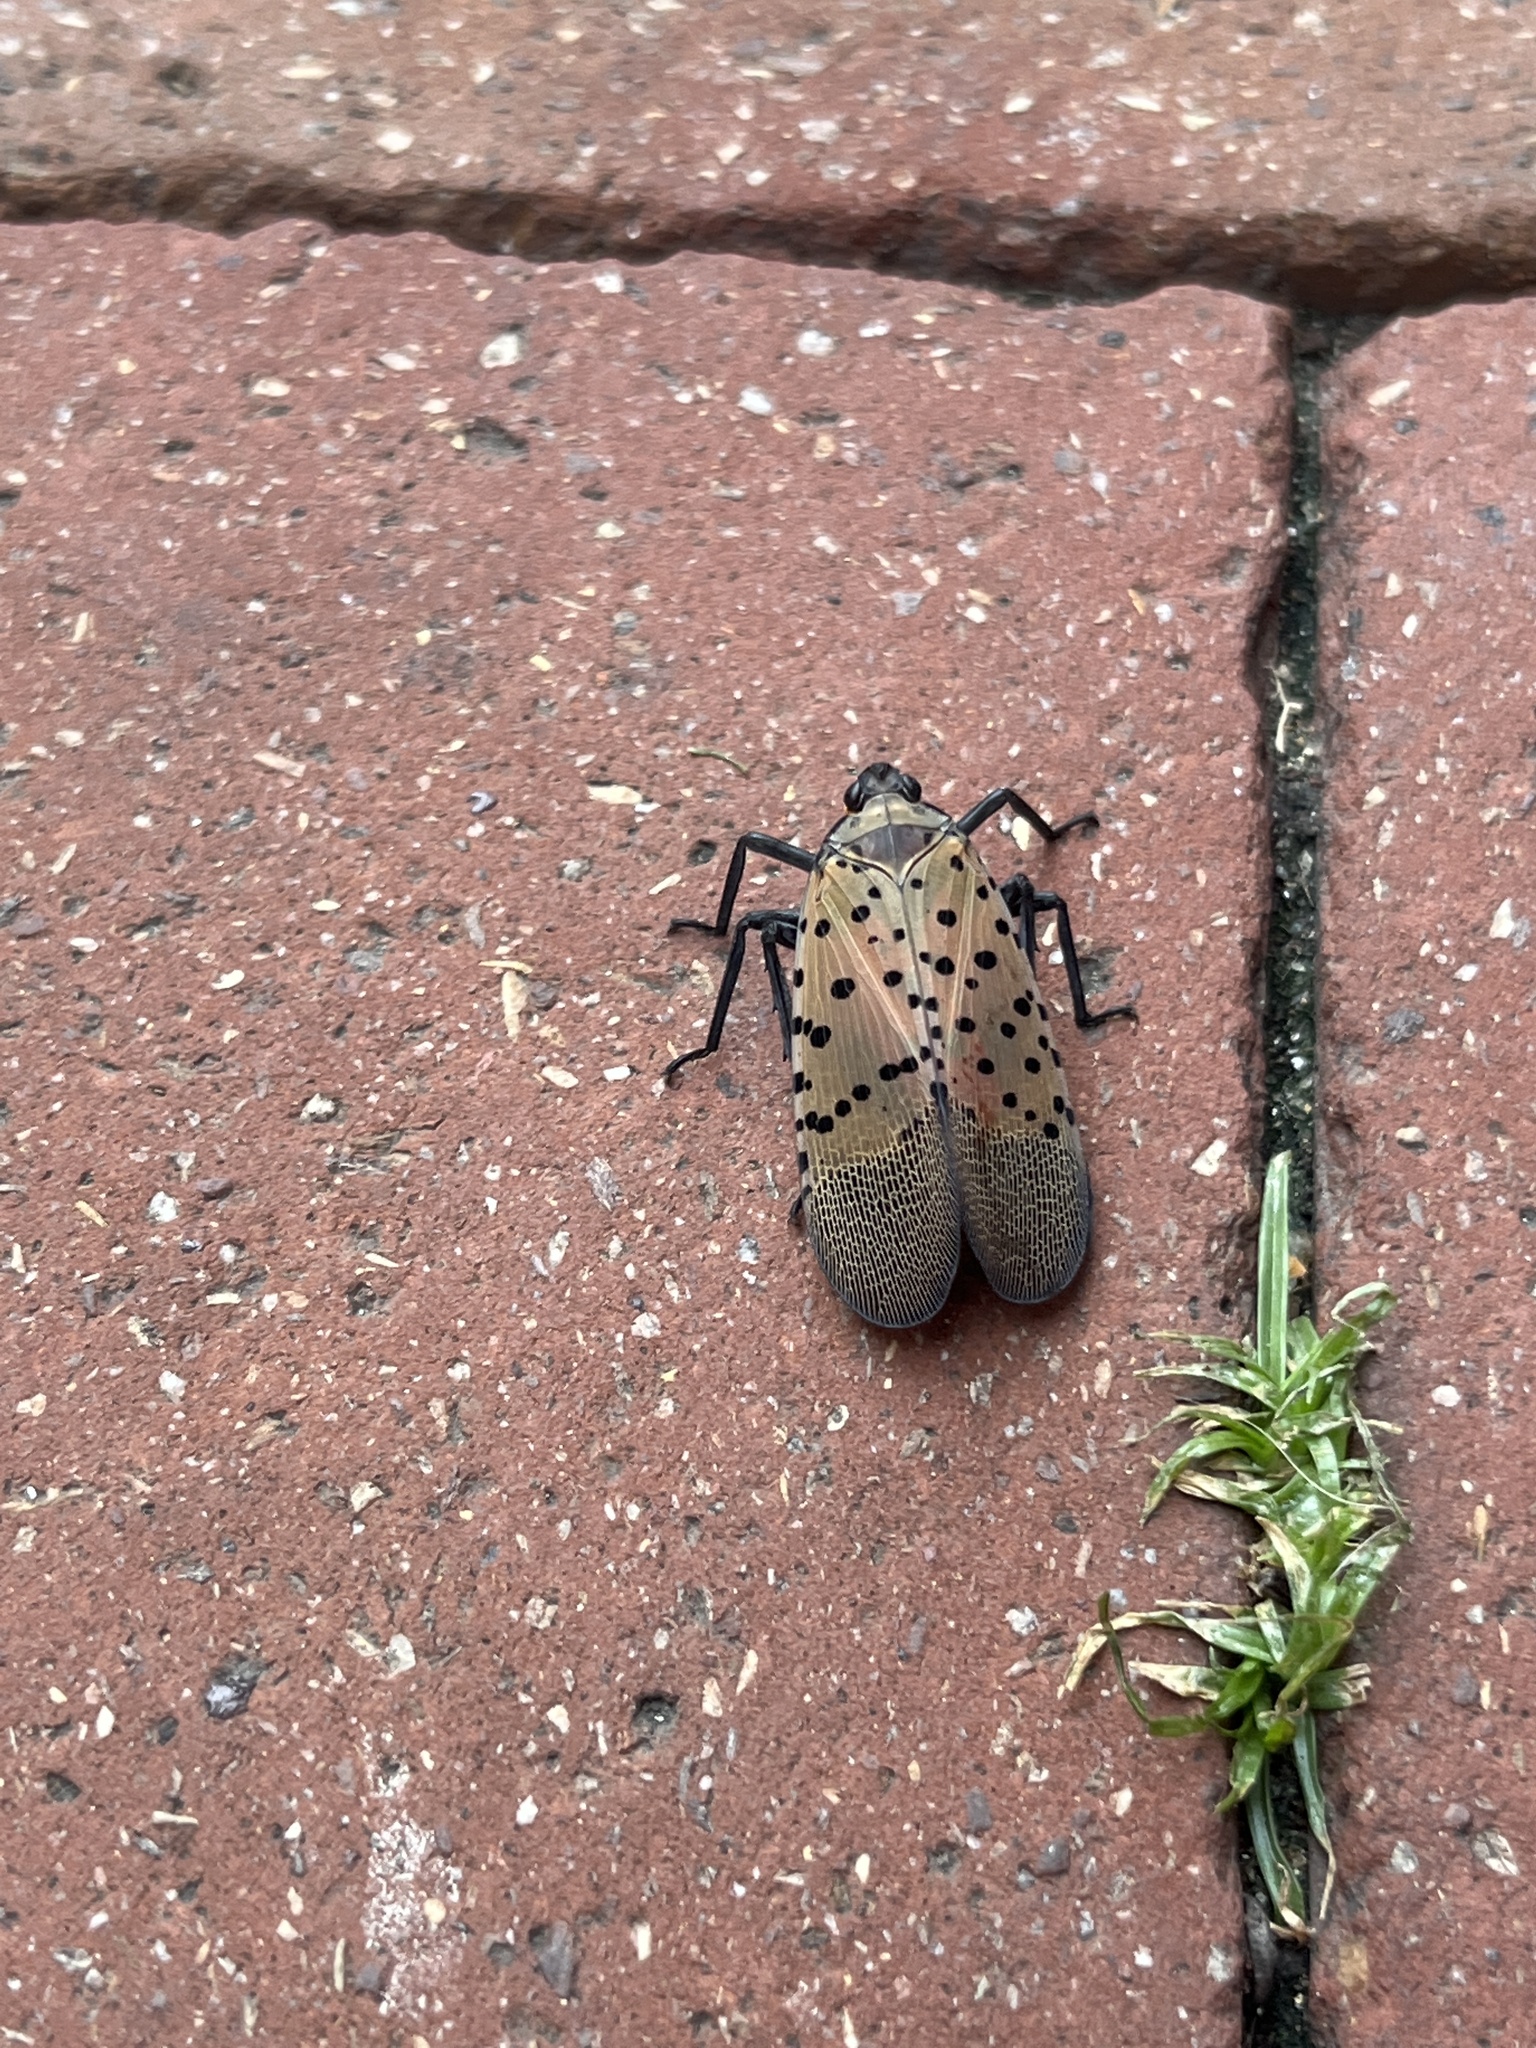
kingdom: Animalia
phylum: Arthropoda
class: Insecta
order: Hemiptera
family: Fulgoridae
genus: Lycorma
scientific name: Lycorma delicatula
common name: Spotted lanternfly
